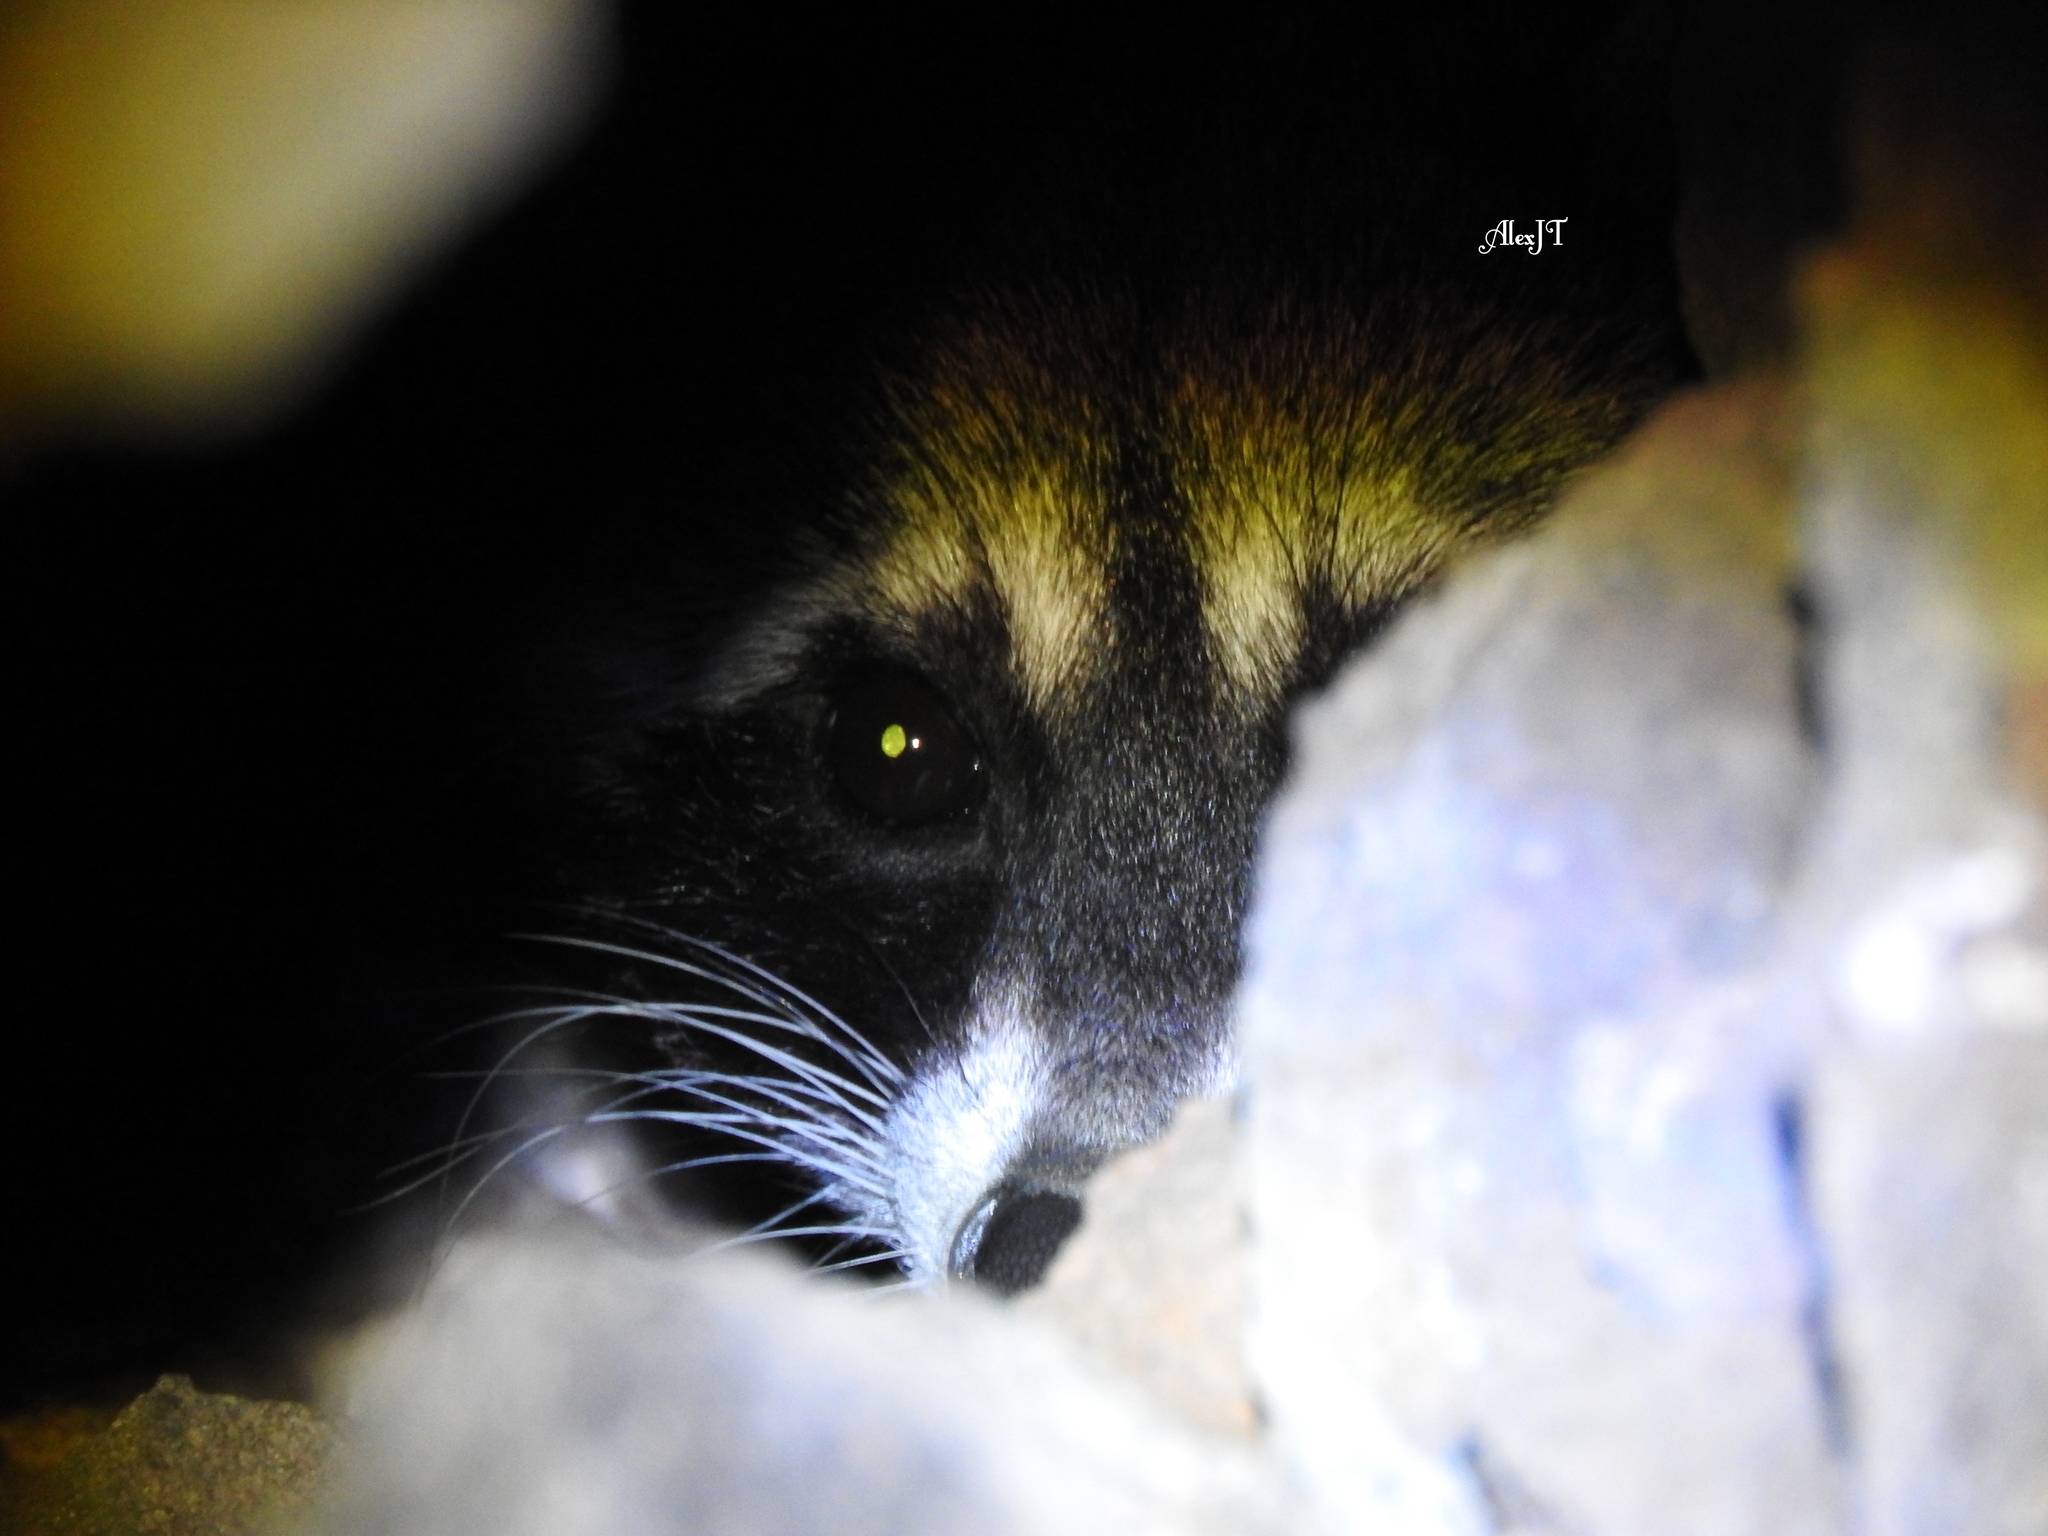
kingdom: Animalia
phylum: Chordata
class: Mammalia
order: Carnivora
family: Procyonidae
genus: Procyon
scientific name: Procyon lotor
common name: Raccoon
